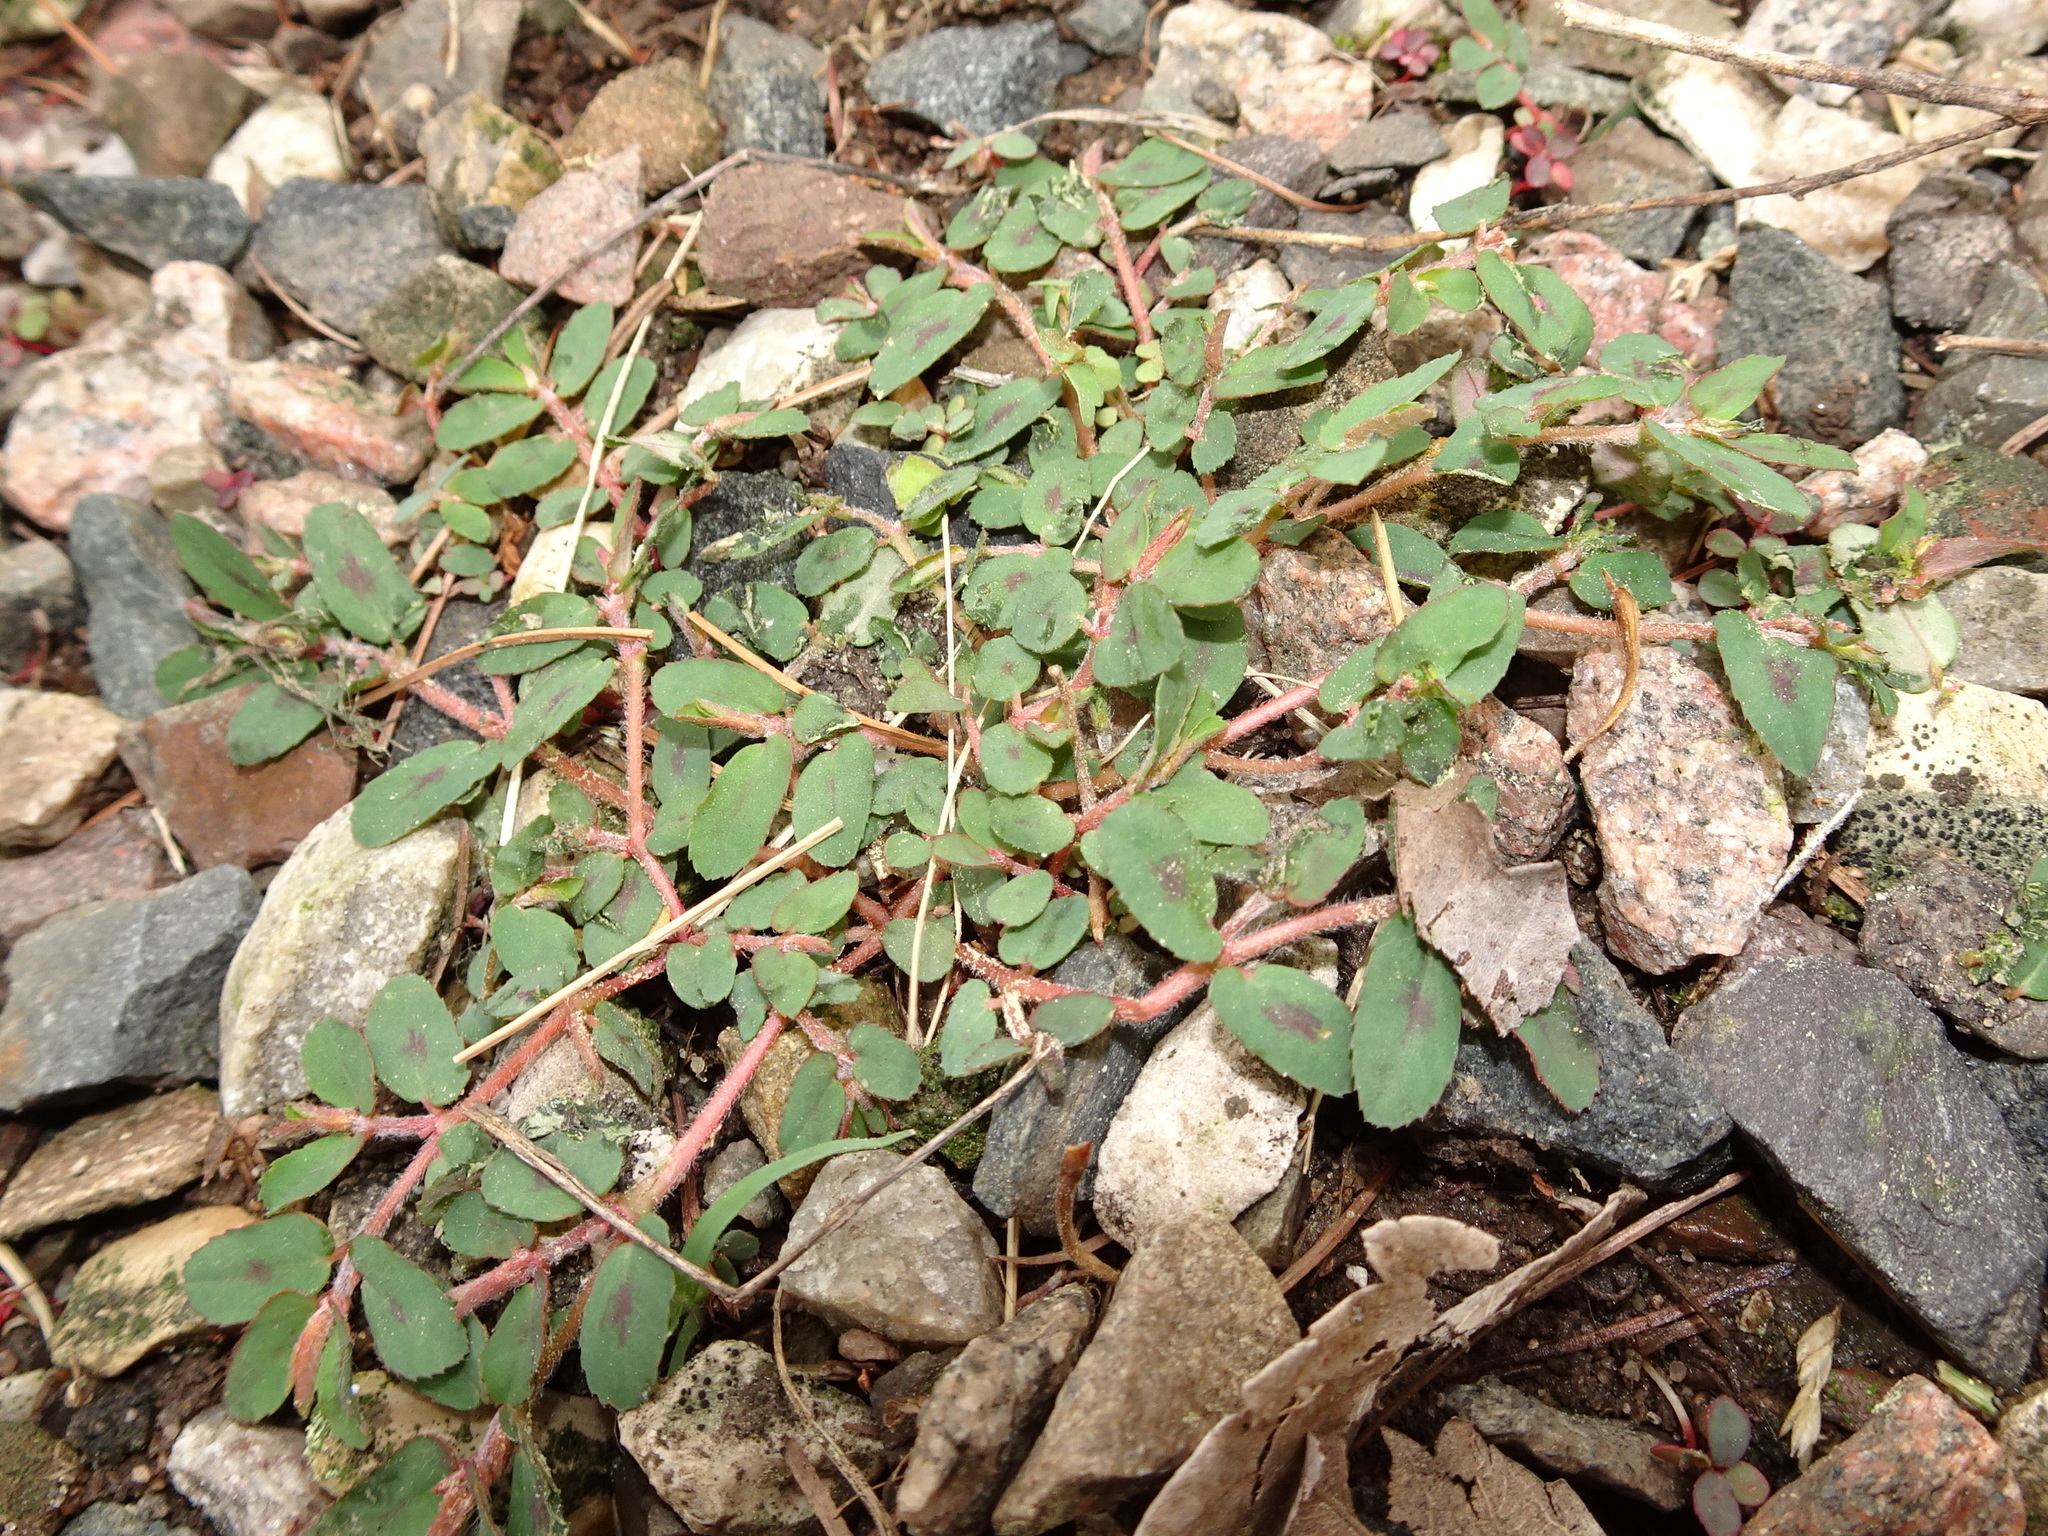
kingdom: Plantae
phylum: Tracheophyta
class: Magnoliopsida
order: Malpighiales
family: Euphorbiaceae
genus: Euphorbia
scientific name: Euphorbia maculata
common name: Spotted spurge
